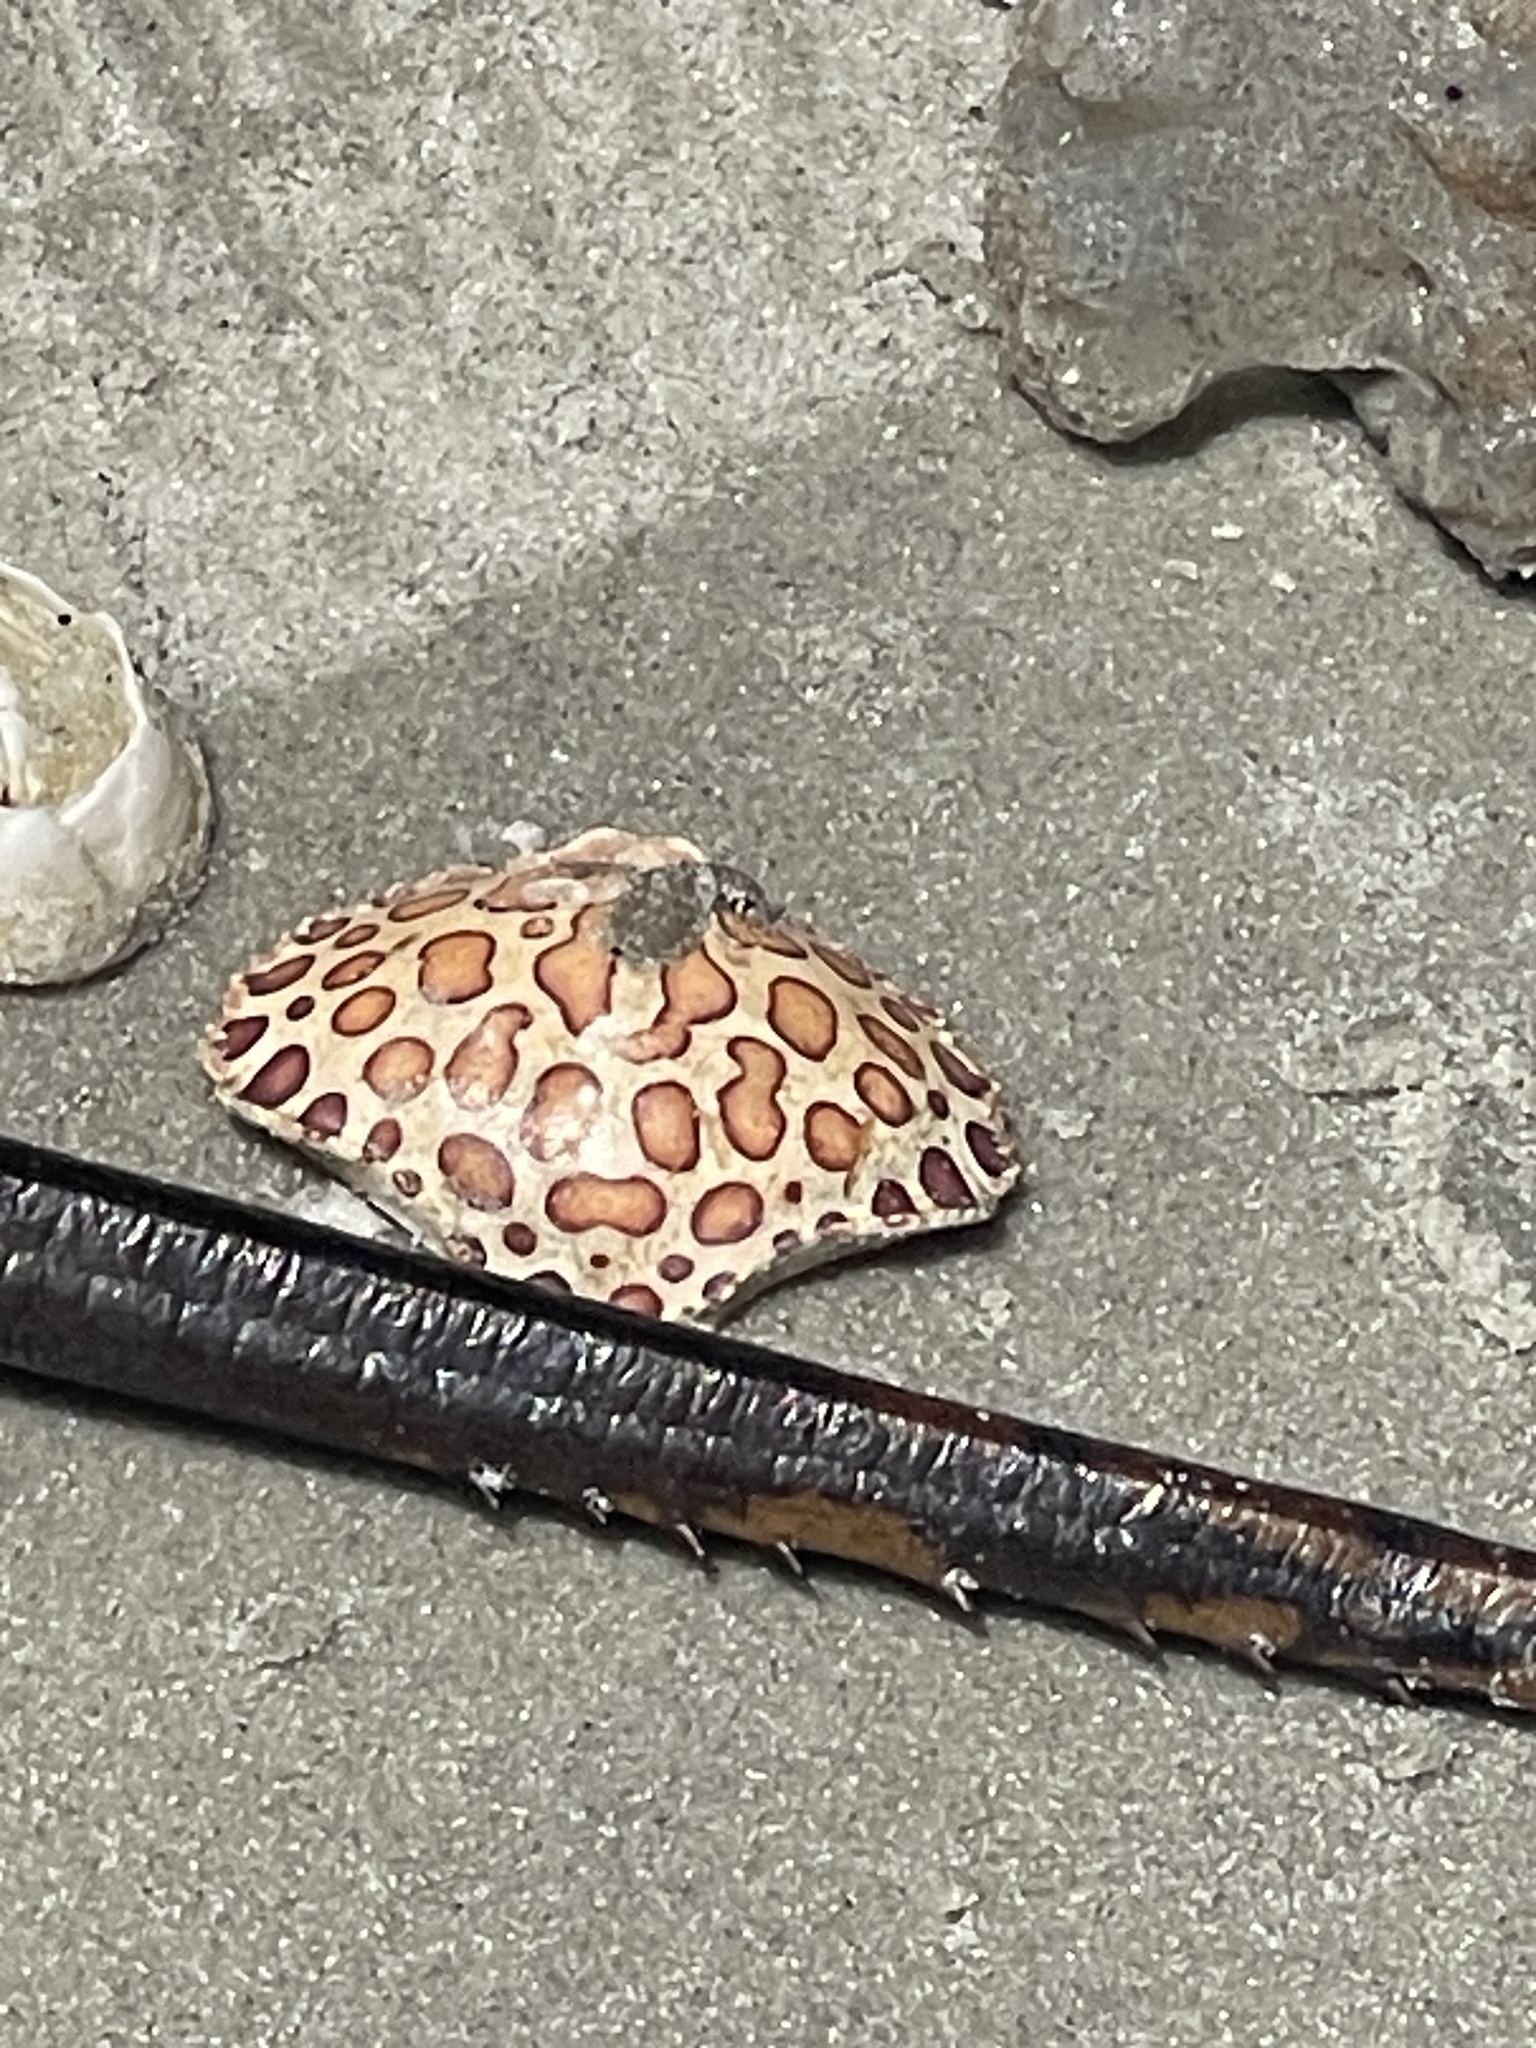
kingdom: Animalia
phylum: Arthropoda
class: Malacostraca
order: Decapoda
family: Aethridae
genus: Hepatus
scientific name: Hepatus epheliticus
